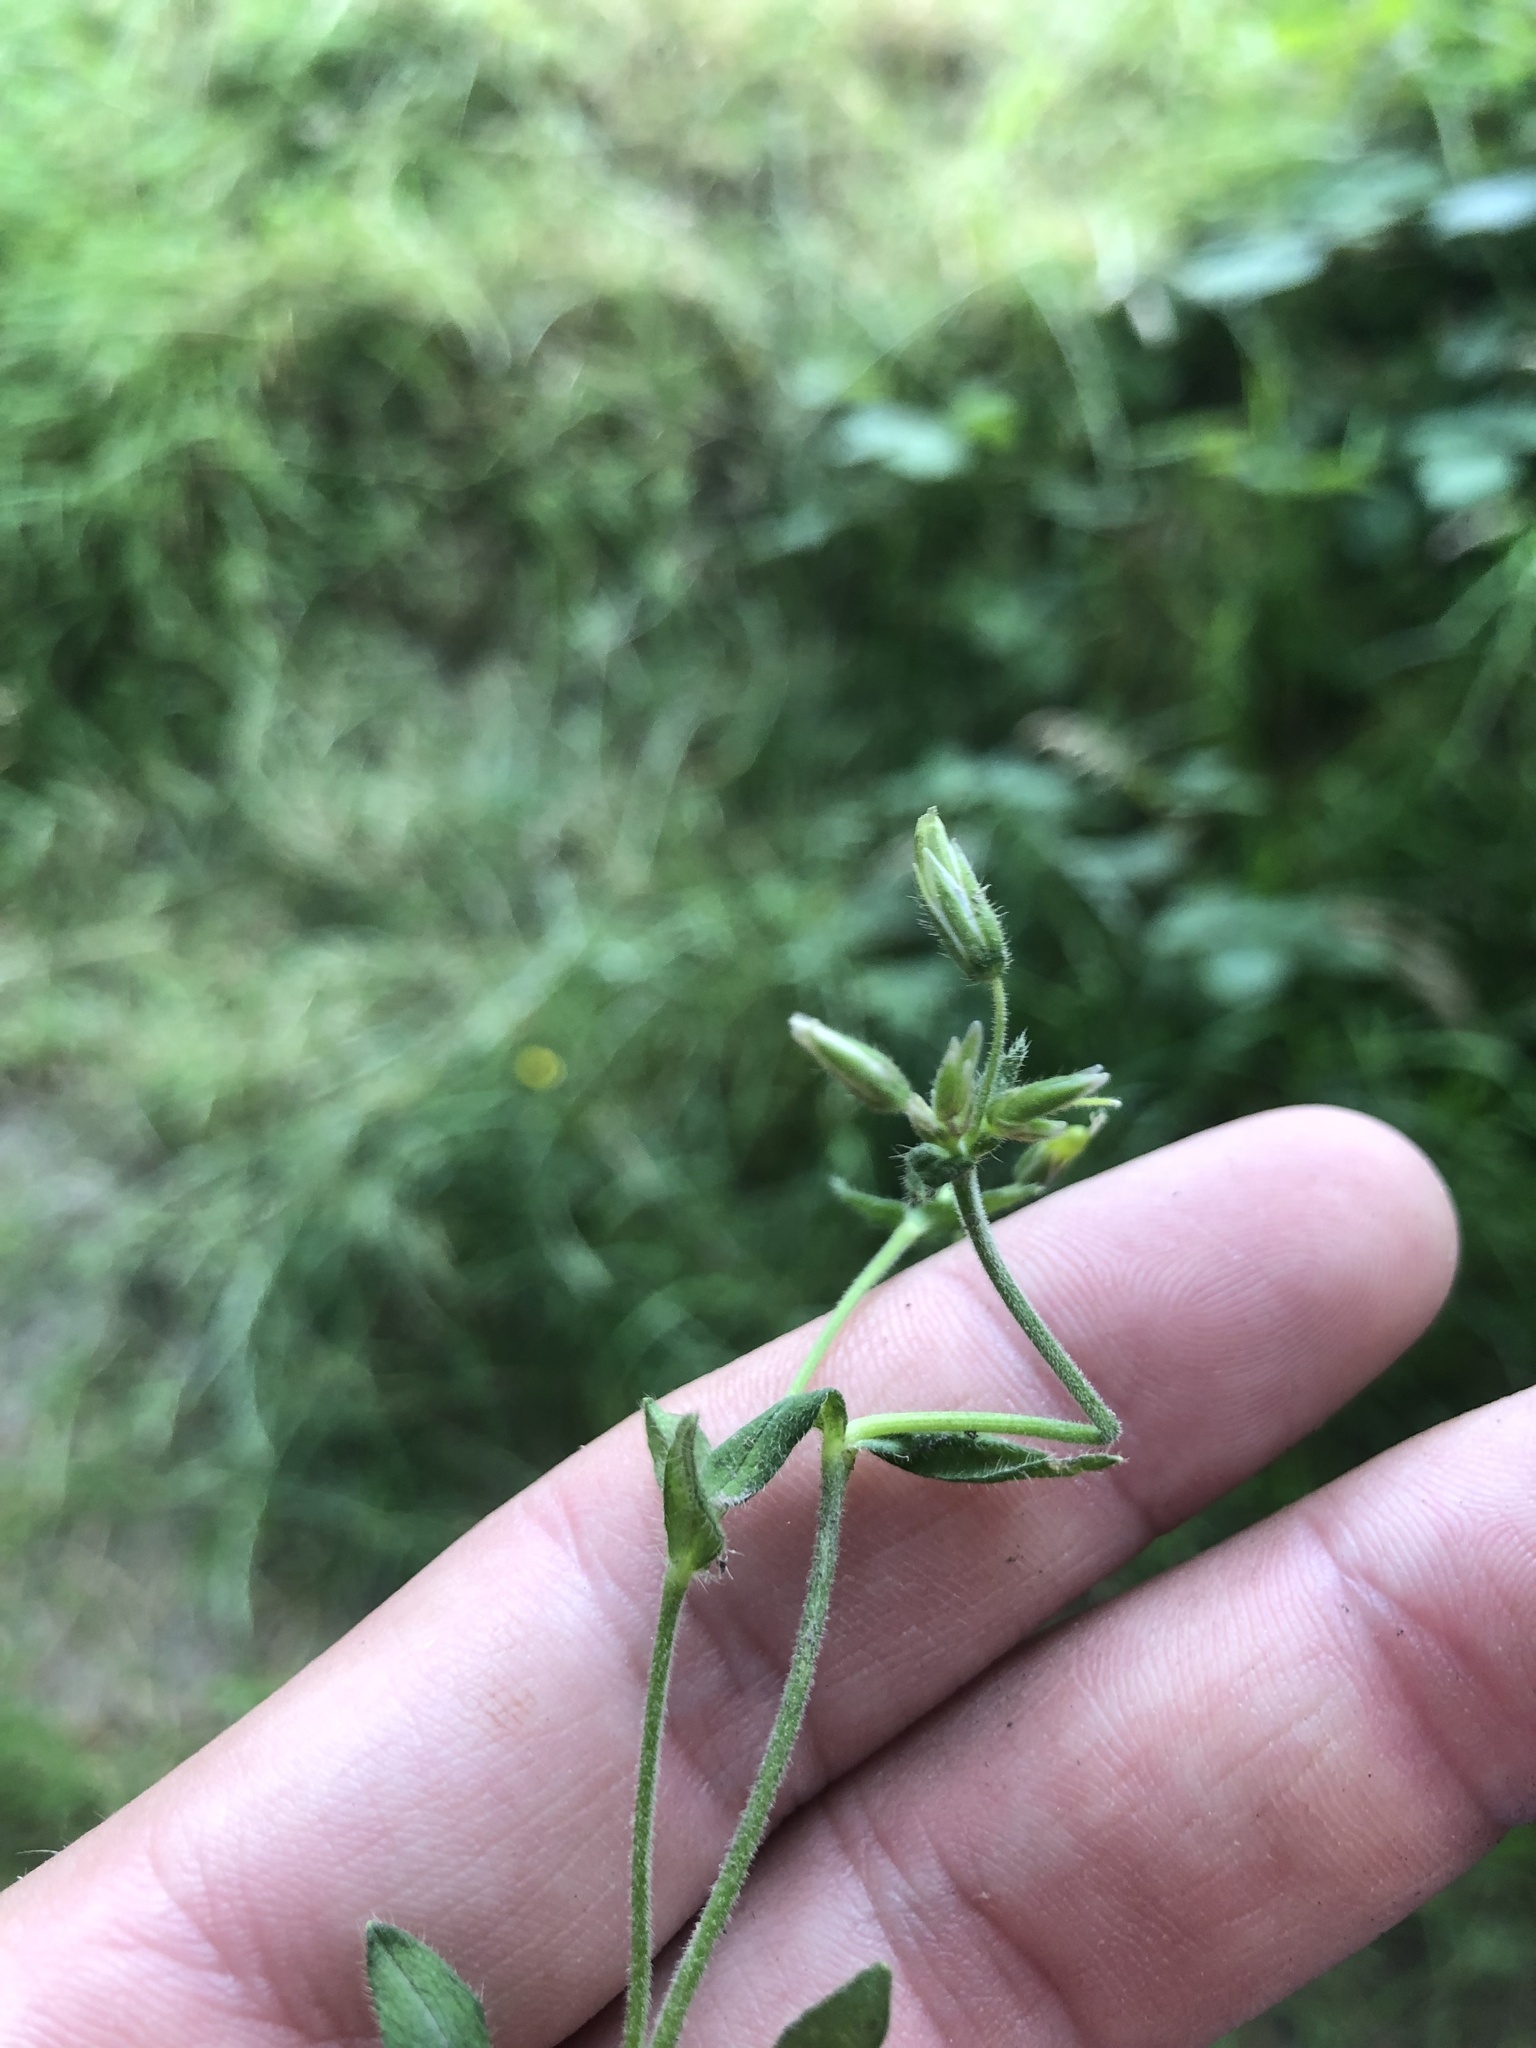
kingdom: Plantae
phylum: Tracheophyta
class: Magnoliopsida
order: Caryophyllales
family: Caryophyllaceae
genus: Cerastium
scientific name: Cerastium fontanum
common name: Common mouse-ear
